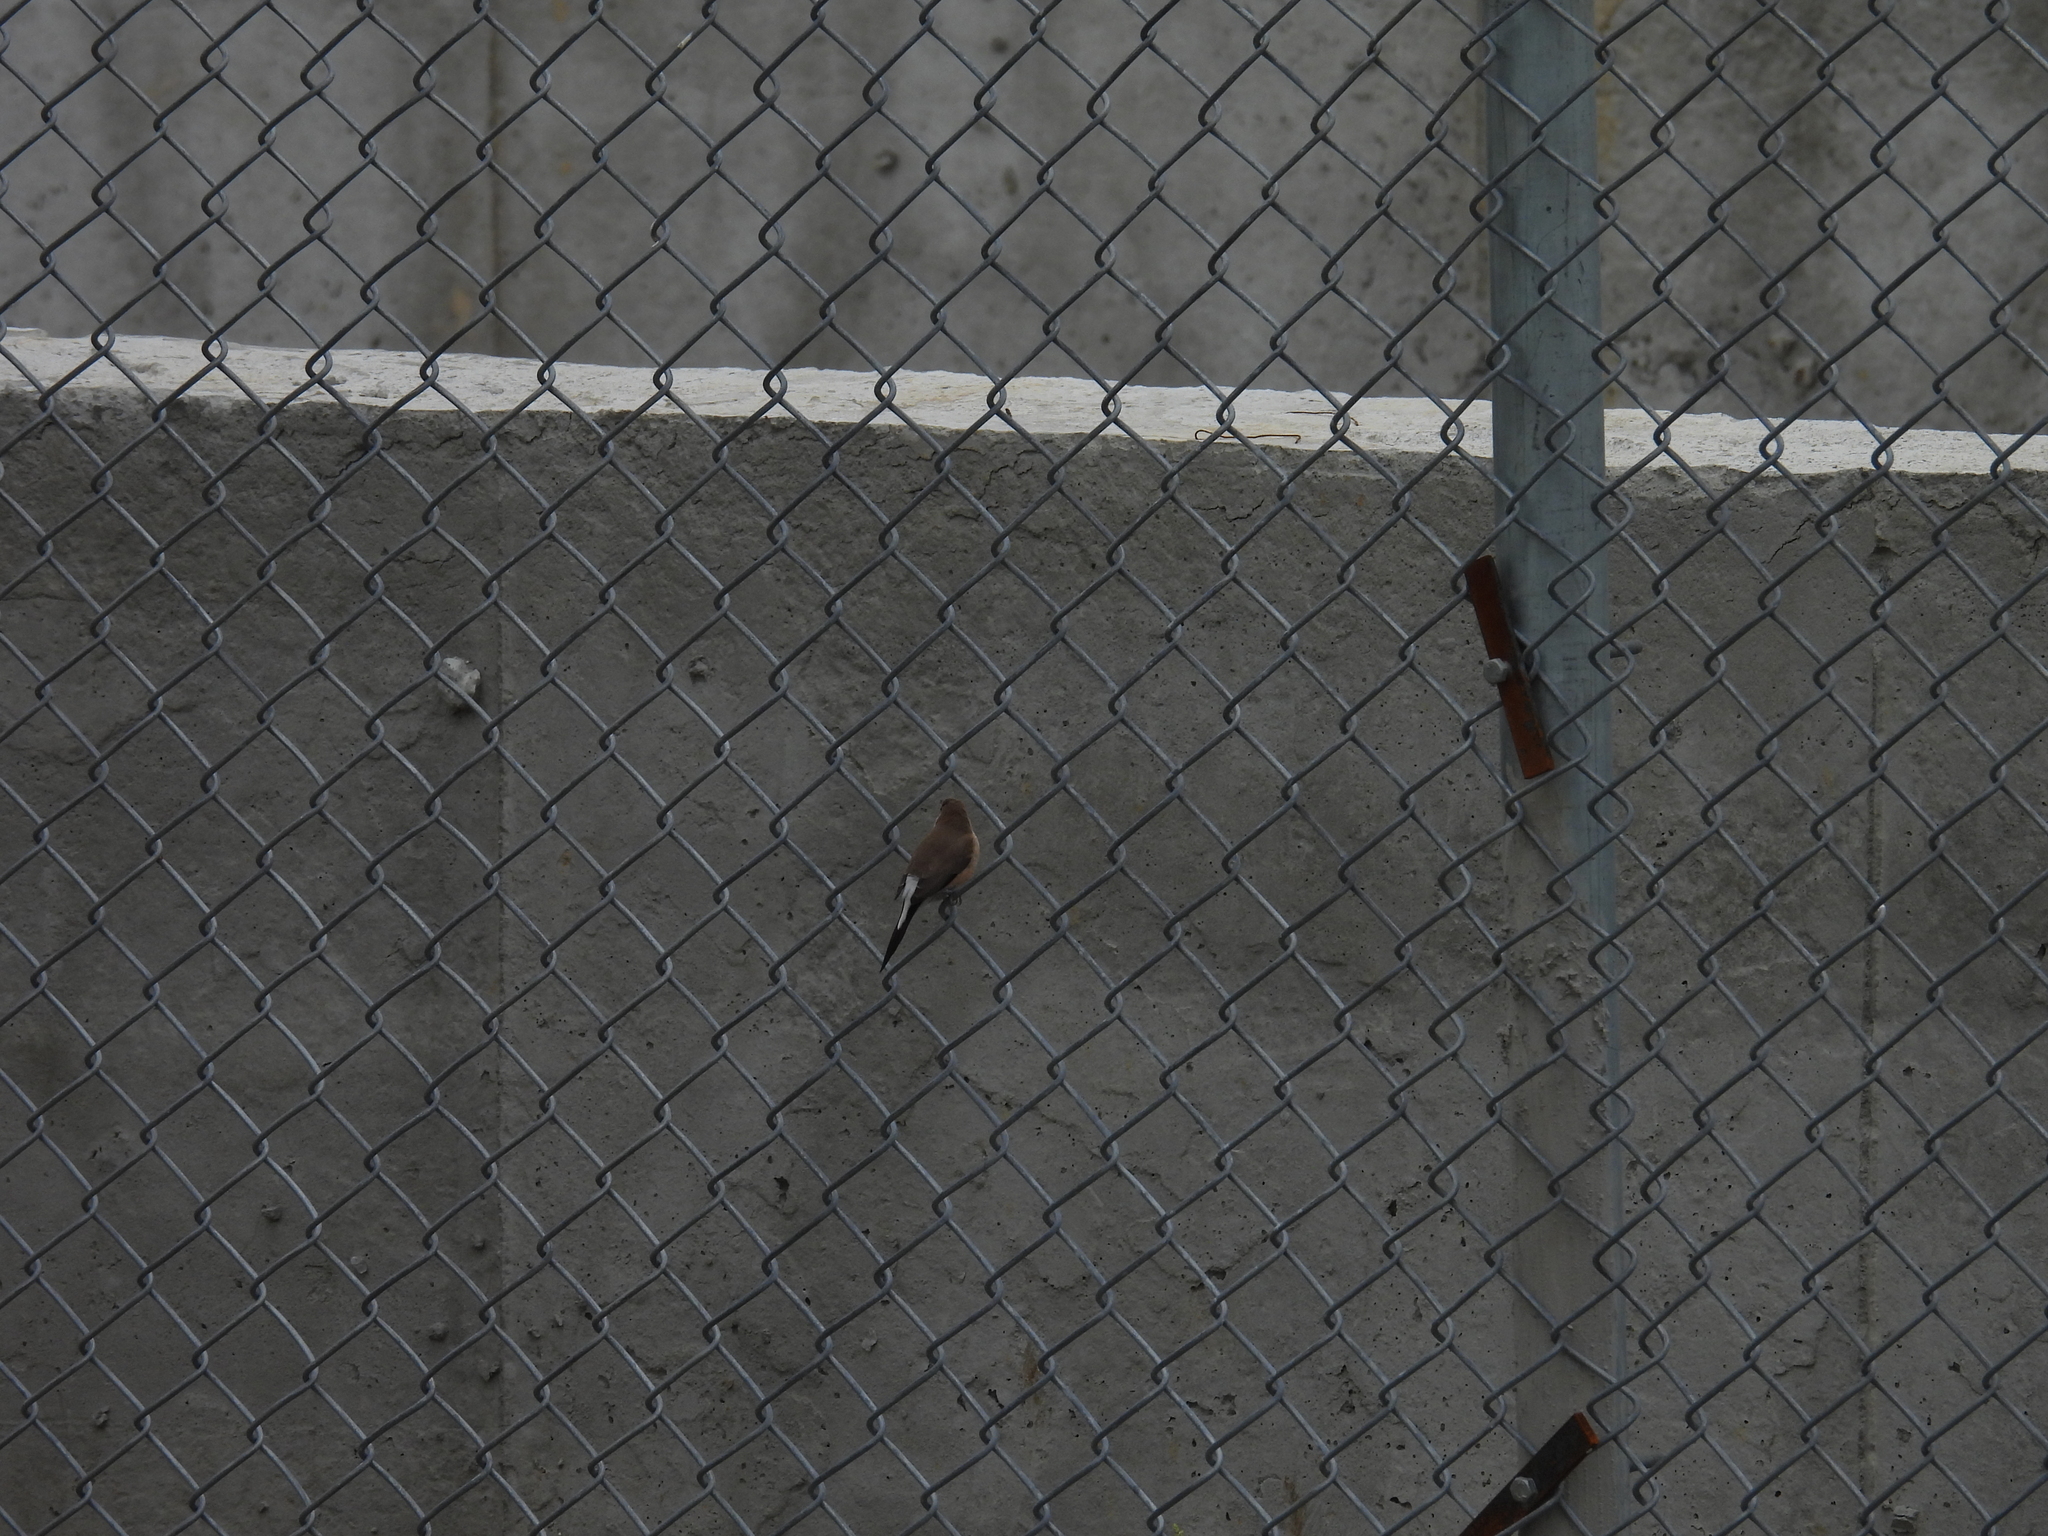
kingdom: Animalia
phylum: Chordata
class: Aves
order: Passeriformes
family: Estrildidae
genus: Euodice
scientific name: Euodice malabarica
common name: Indian silverbill
